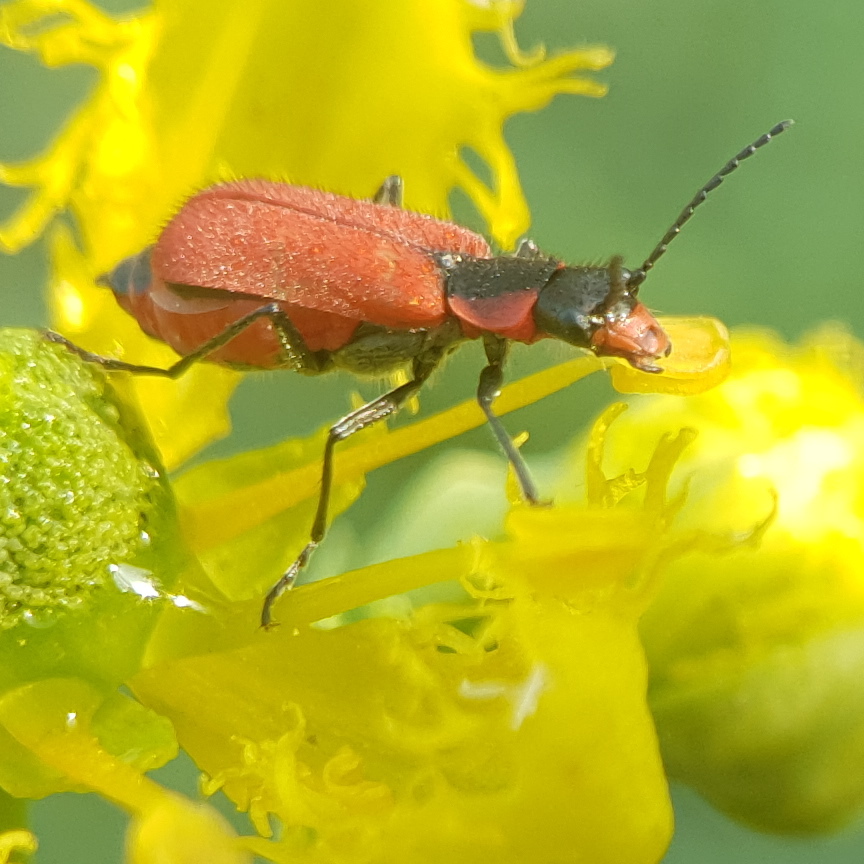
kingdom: Animalia
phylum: Arthropoda
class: Insecta
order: Coleoptera
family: Melyridae
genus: Malachius
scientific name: Malachius coccineus
